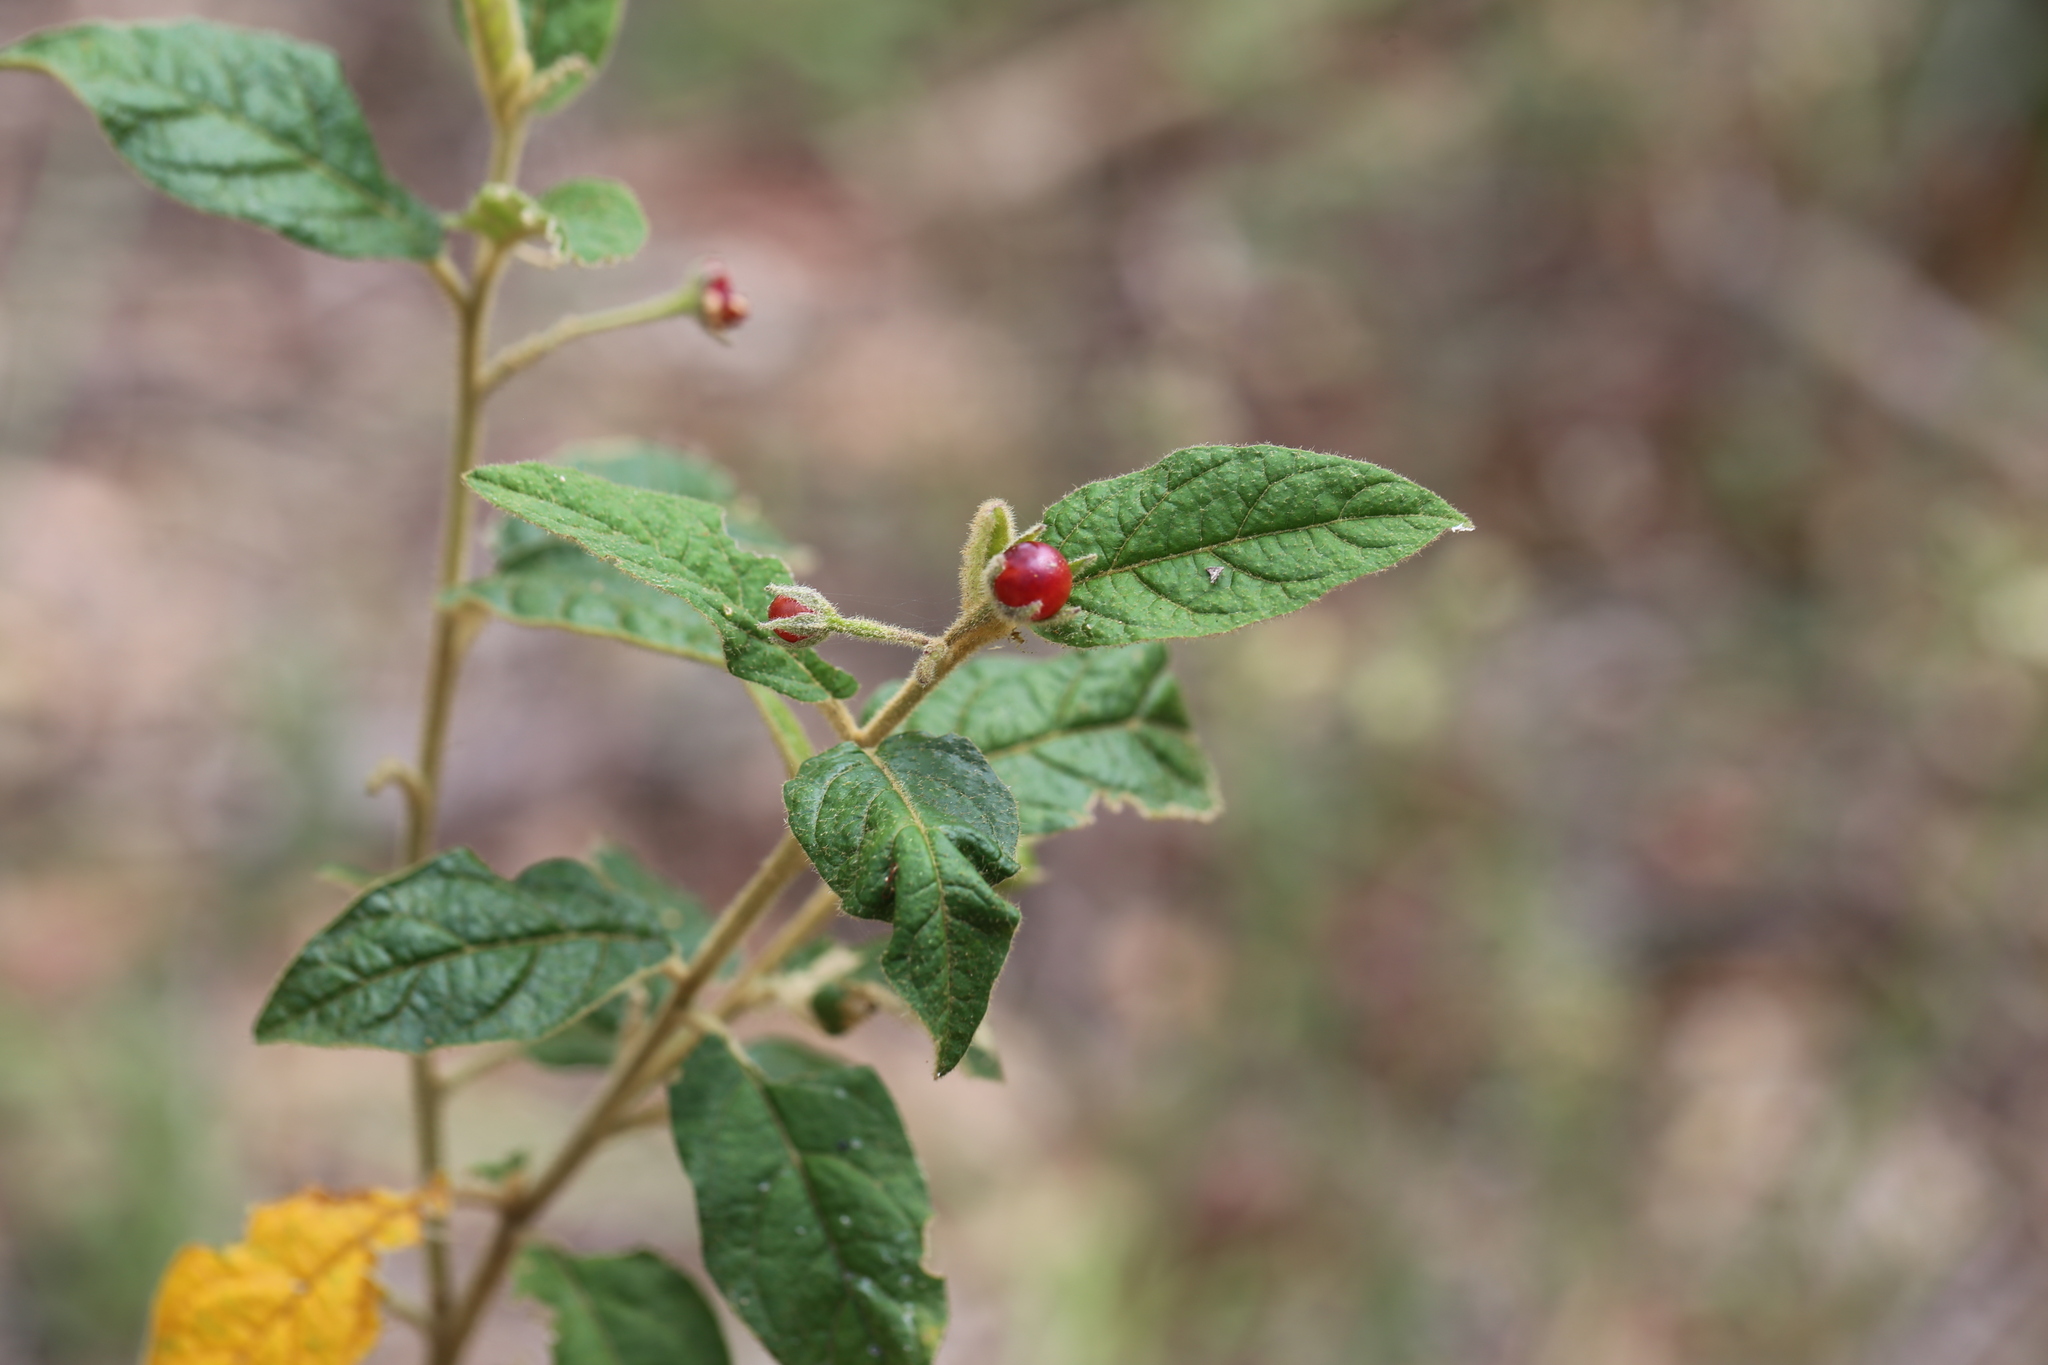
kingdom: Plantae
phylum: Tracheophyta
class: Magnoliopsida
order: Solanales
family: Solanaceae
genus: Solanum
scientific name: Solanum stelligerum
